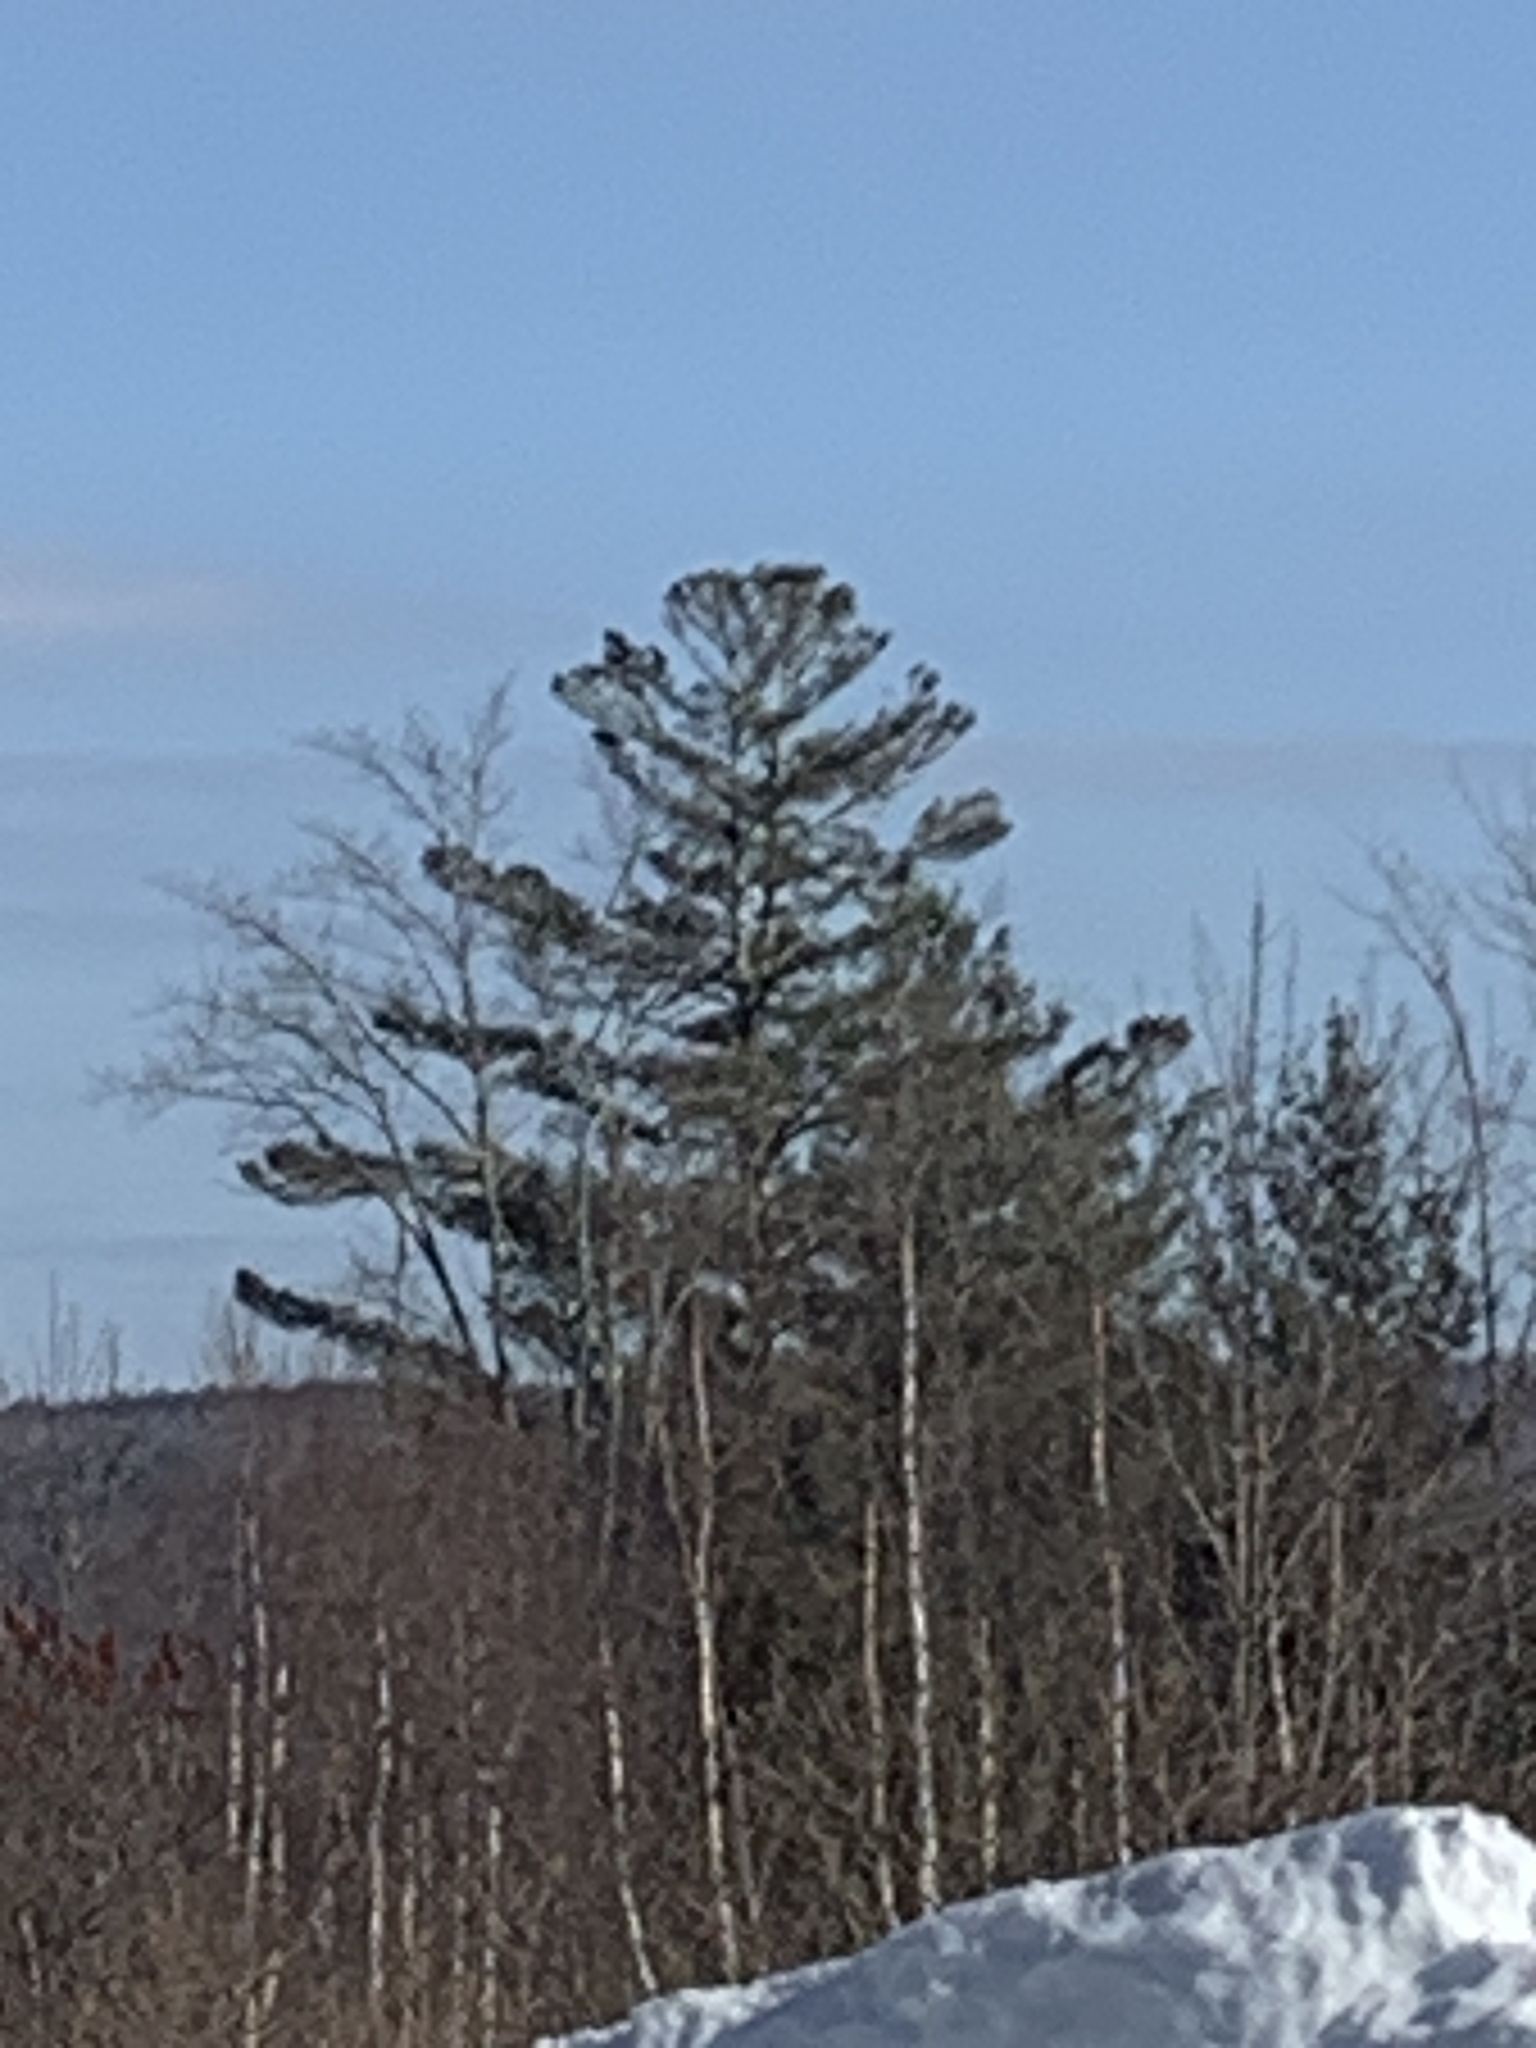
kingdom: Plantae
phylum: Tracheophyta
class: Pinopsida
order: Pinales
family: Pinaceae
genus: Pinus
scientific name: Pinus strobus
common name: Weymouth pine
